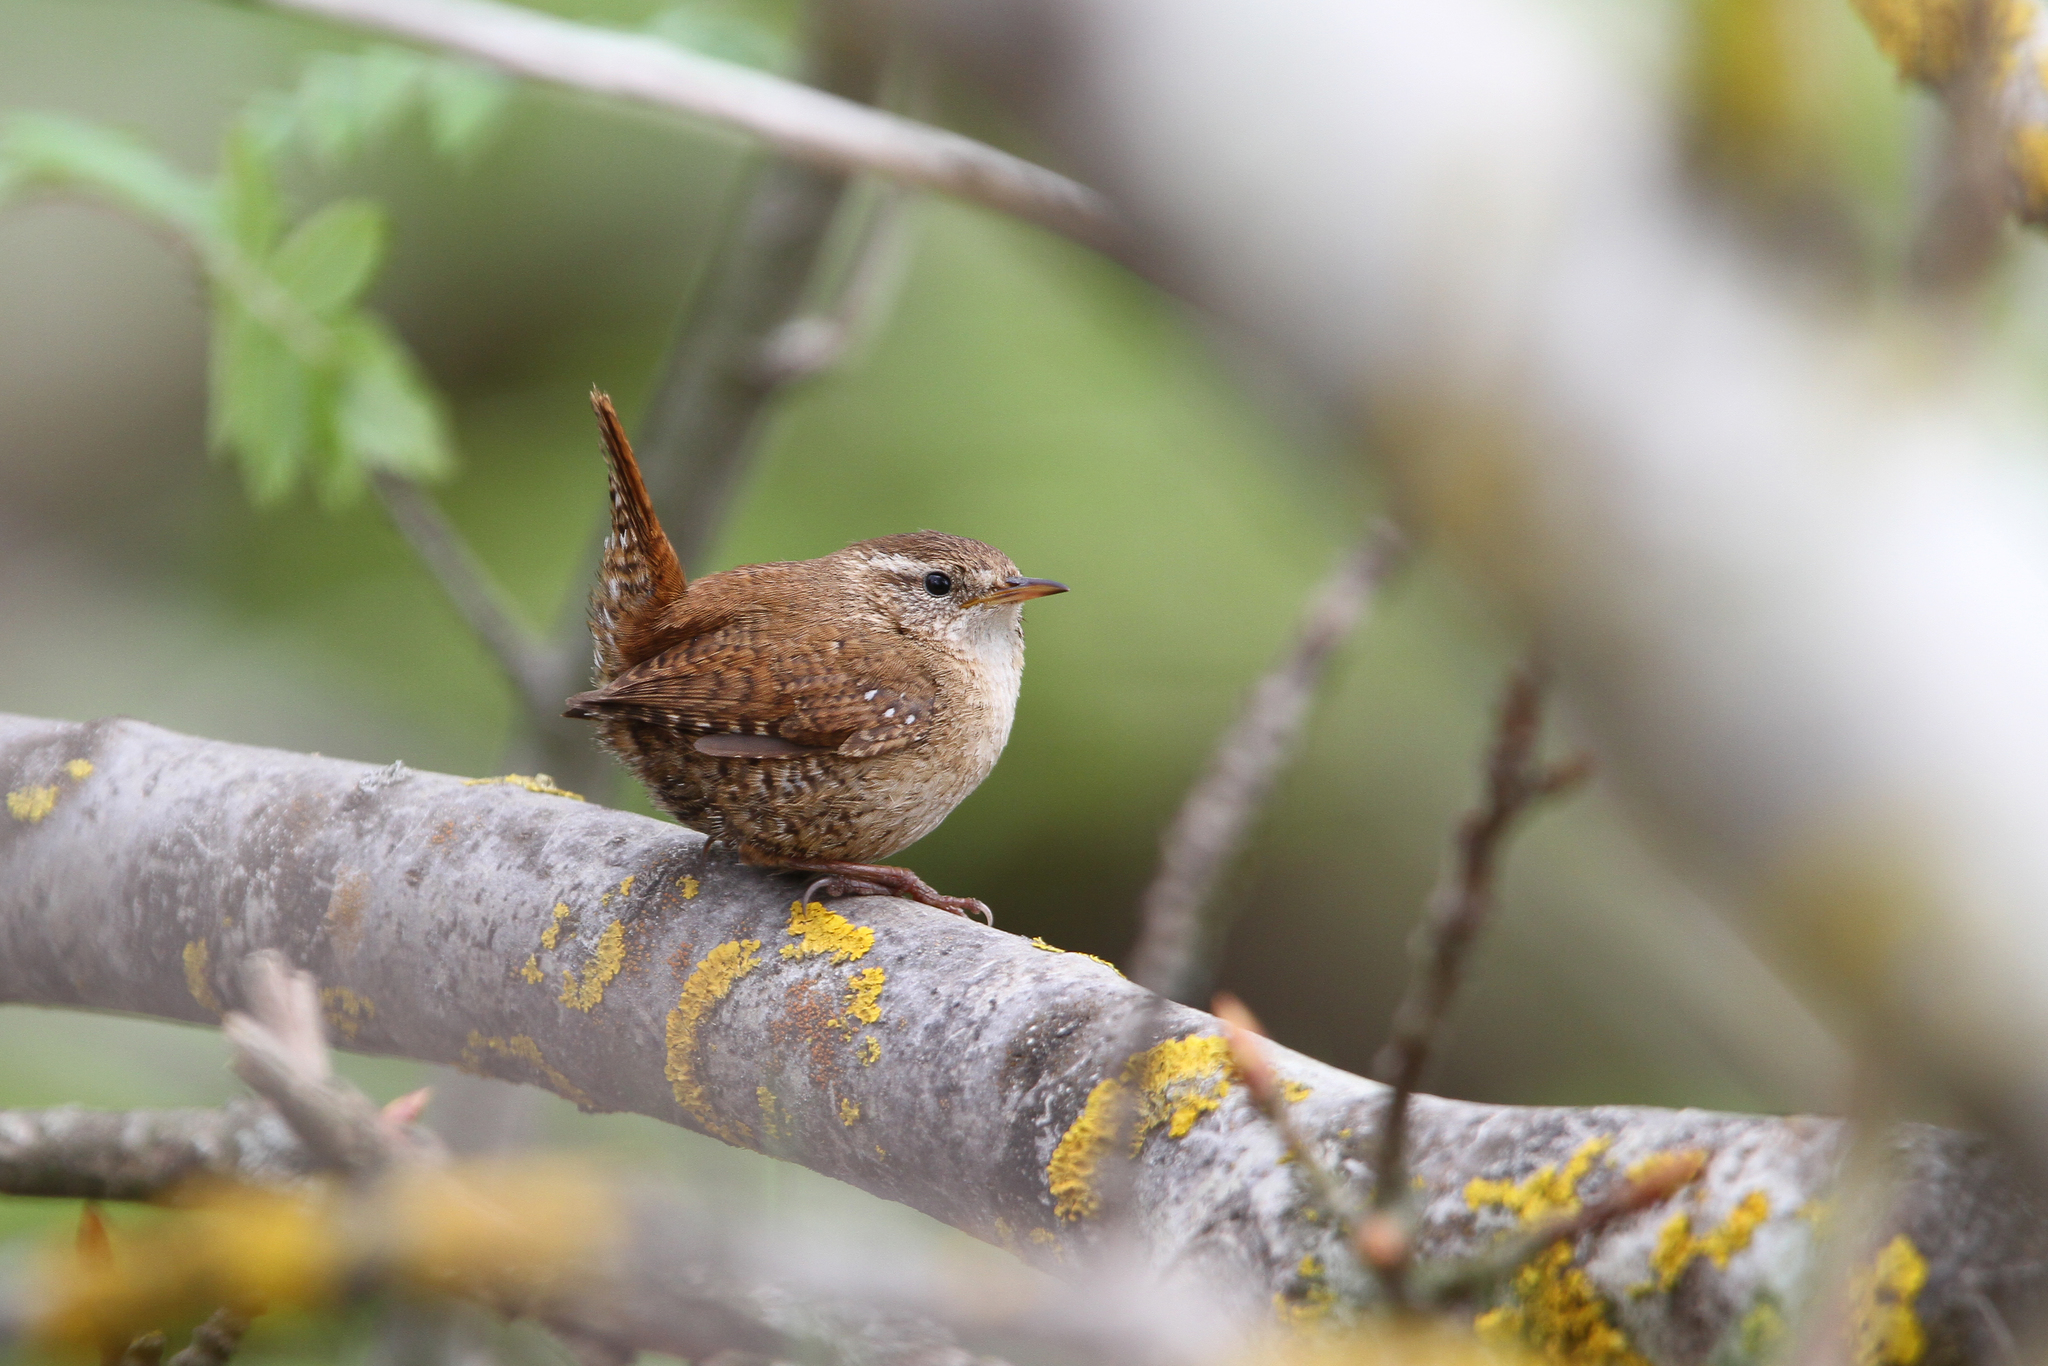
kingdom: Animalia
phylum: Chordata
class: Aves
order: Passeriformes
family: Troglodytidae
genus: Troglodytes
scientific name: Troglodytes troglodytes
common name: Eurasian wren
